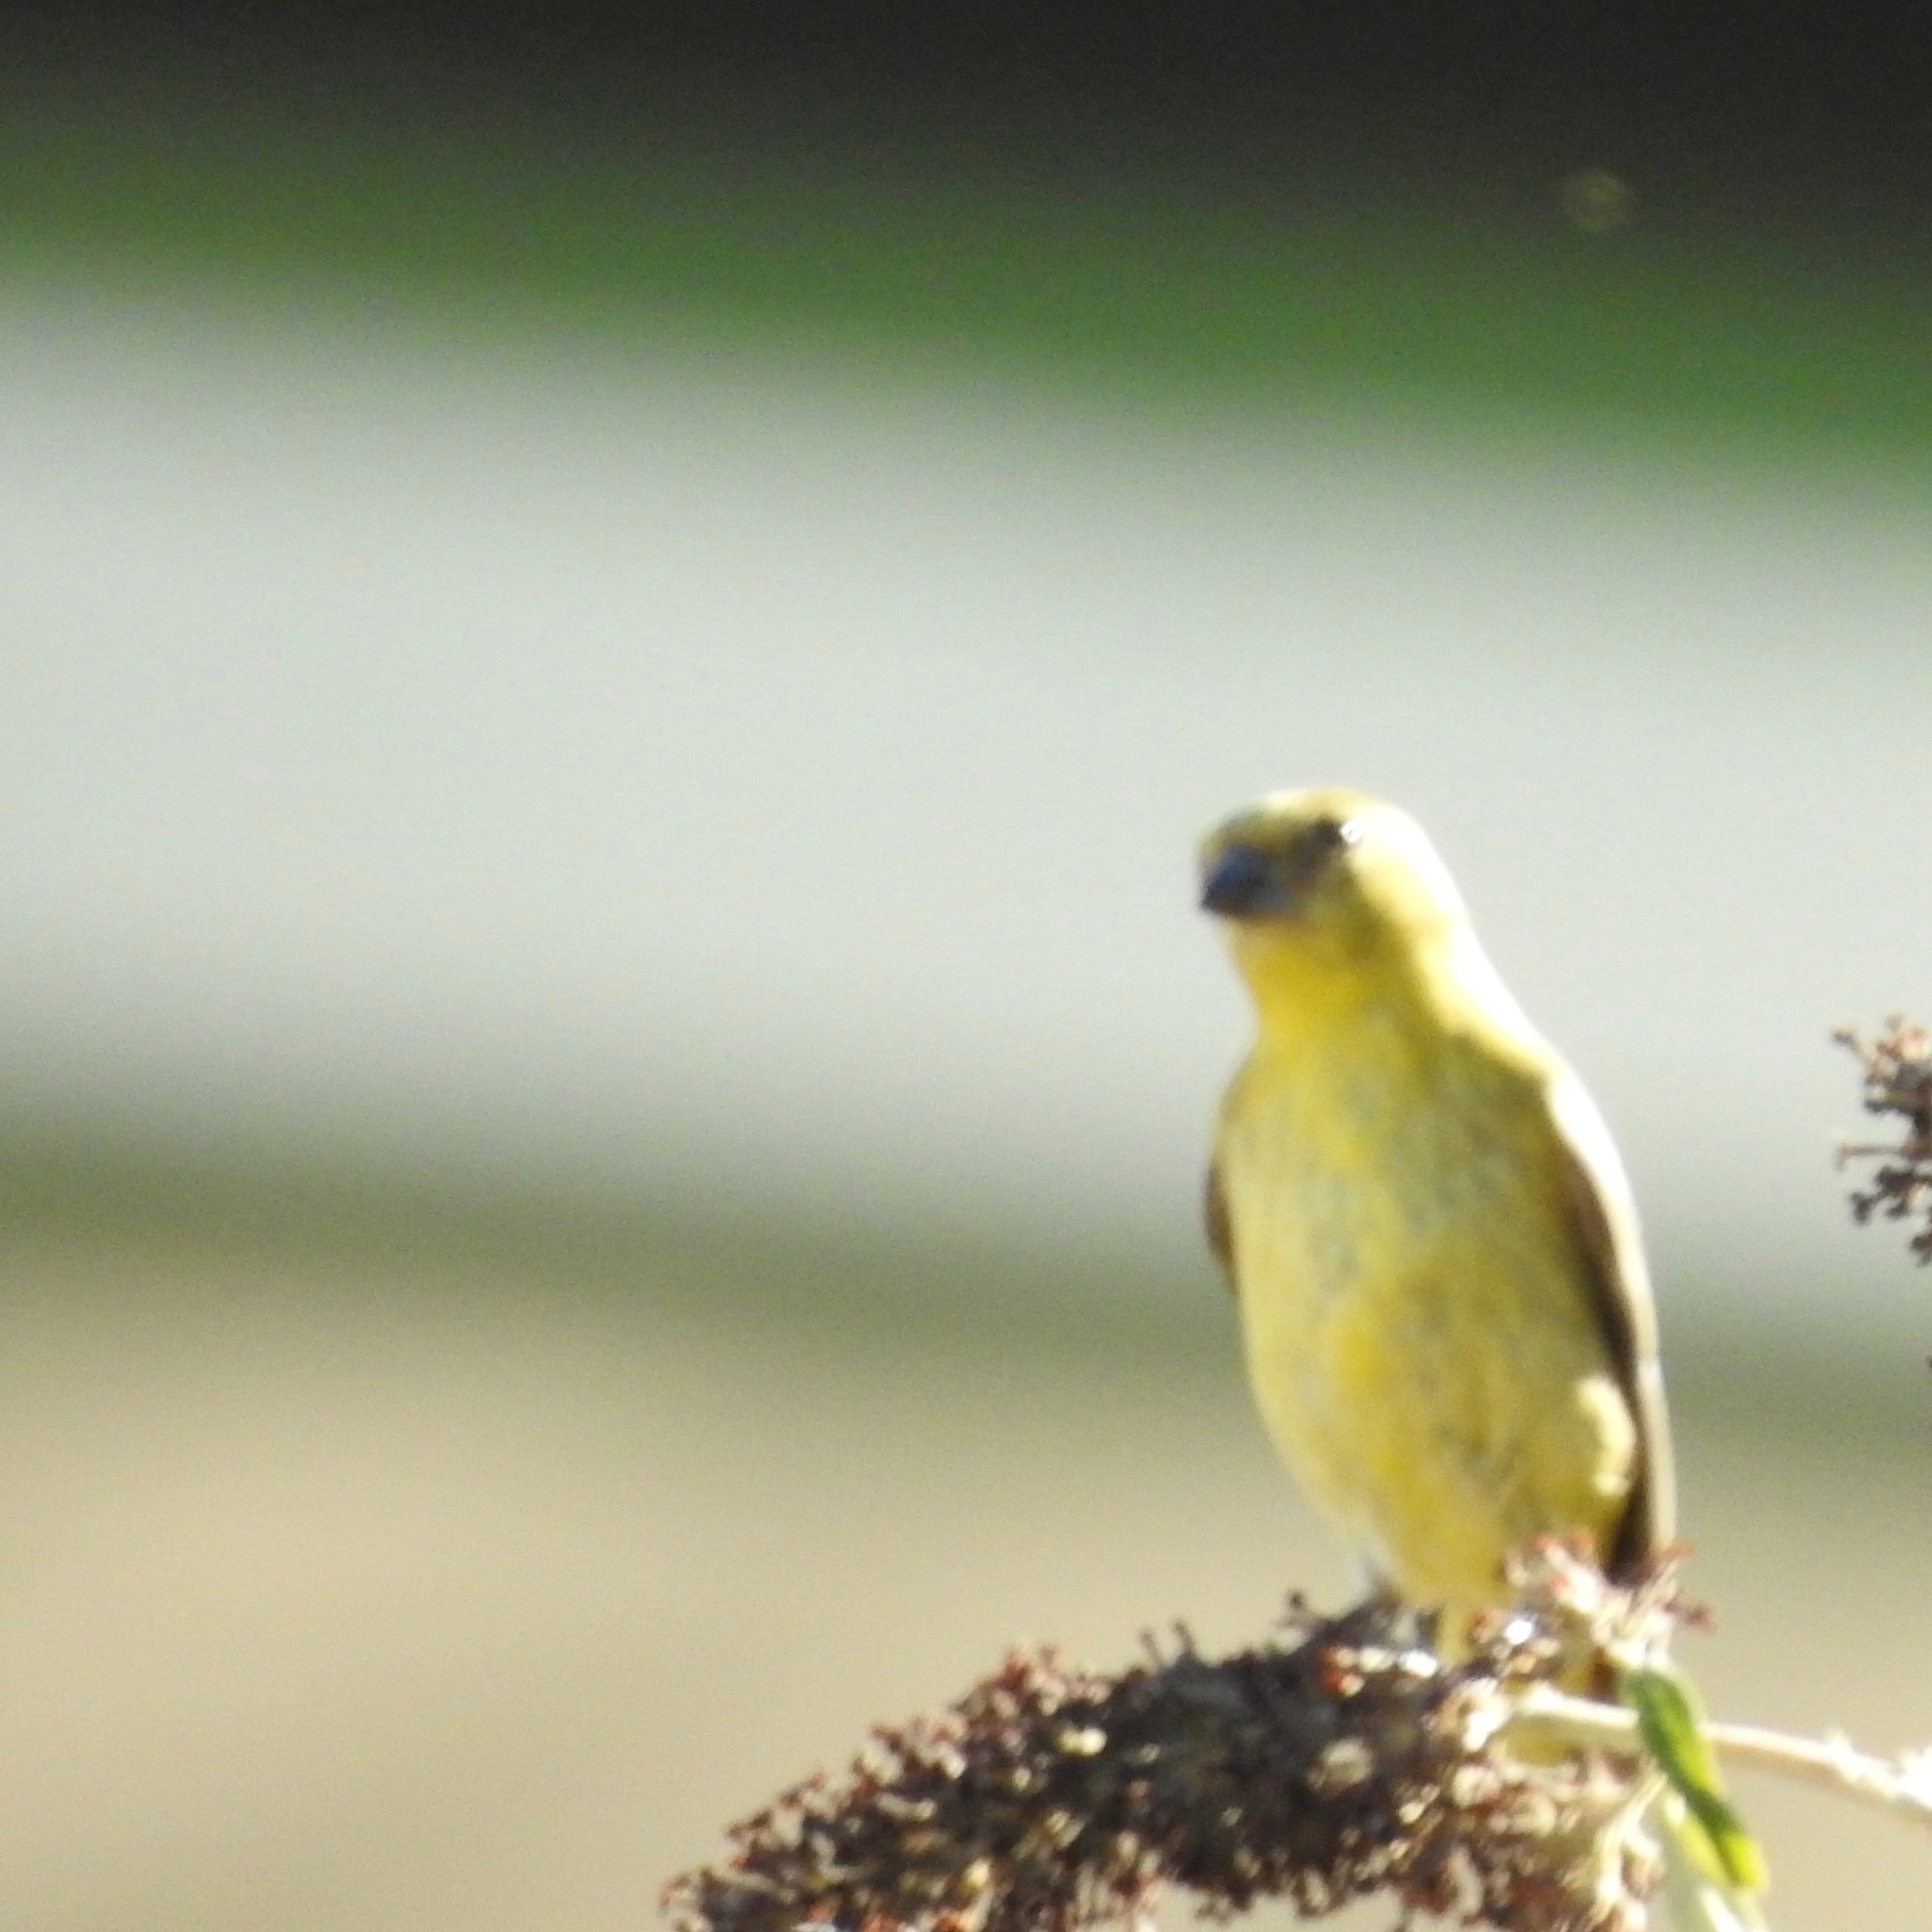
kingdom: Animalia
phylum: Chordata
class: Aves
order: Passeriformes
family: Fringillidae
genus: Spinus
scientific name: Spinus psaltria
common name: Lesser goldfinch
